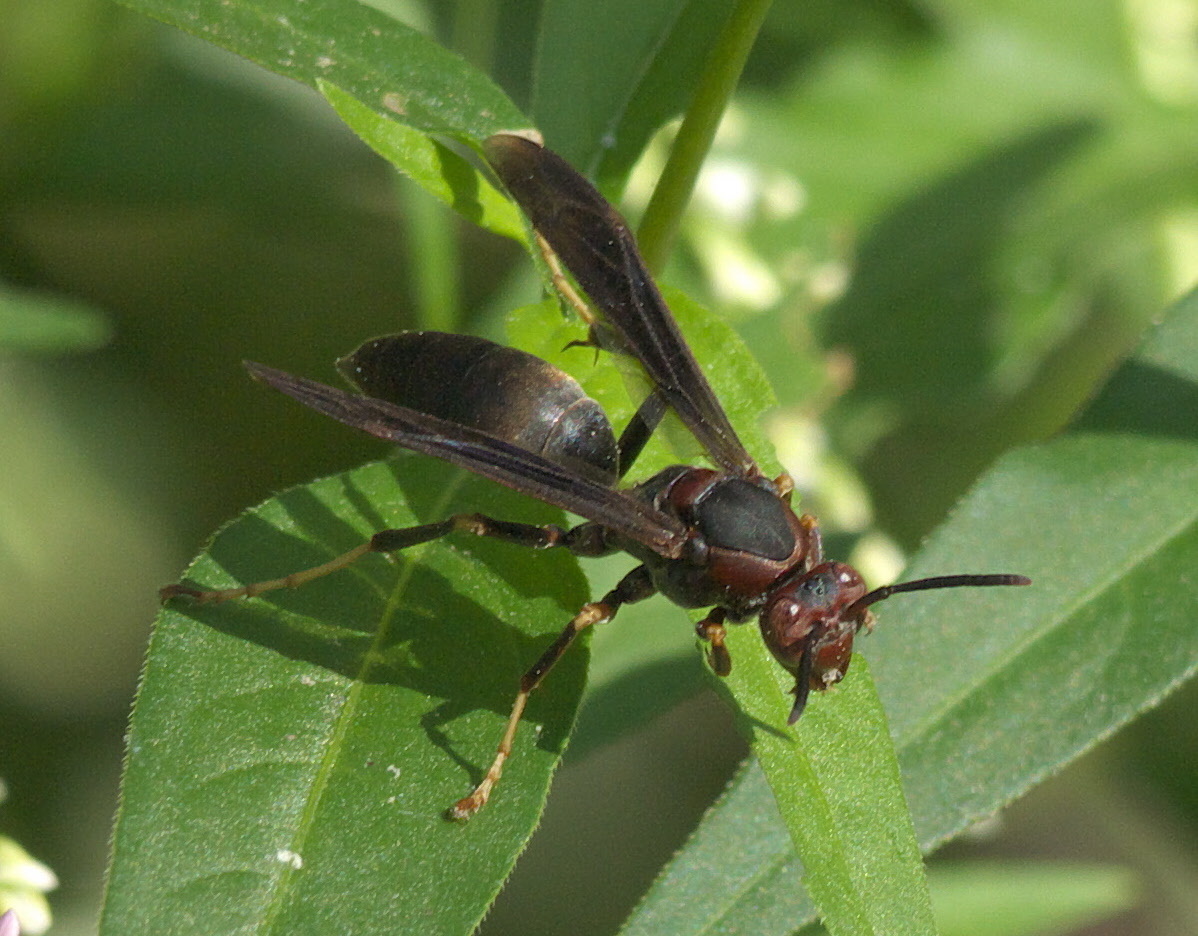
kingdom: Animalia
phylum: Arthropoda
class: Insecta
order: Hymenoptera
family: Eumenidae
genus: Polistes
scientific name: Polistes metricus
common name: Metric paper wasp
